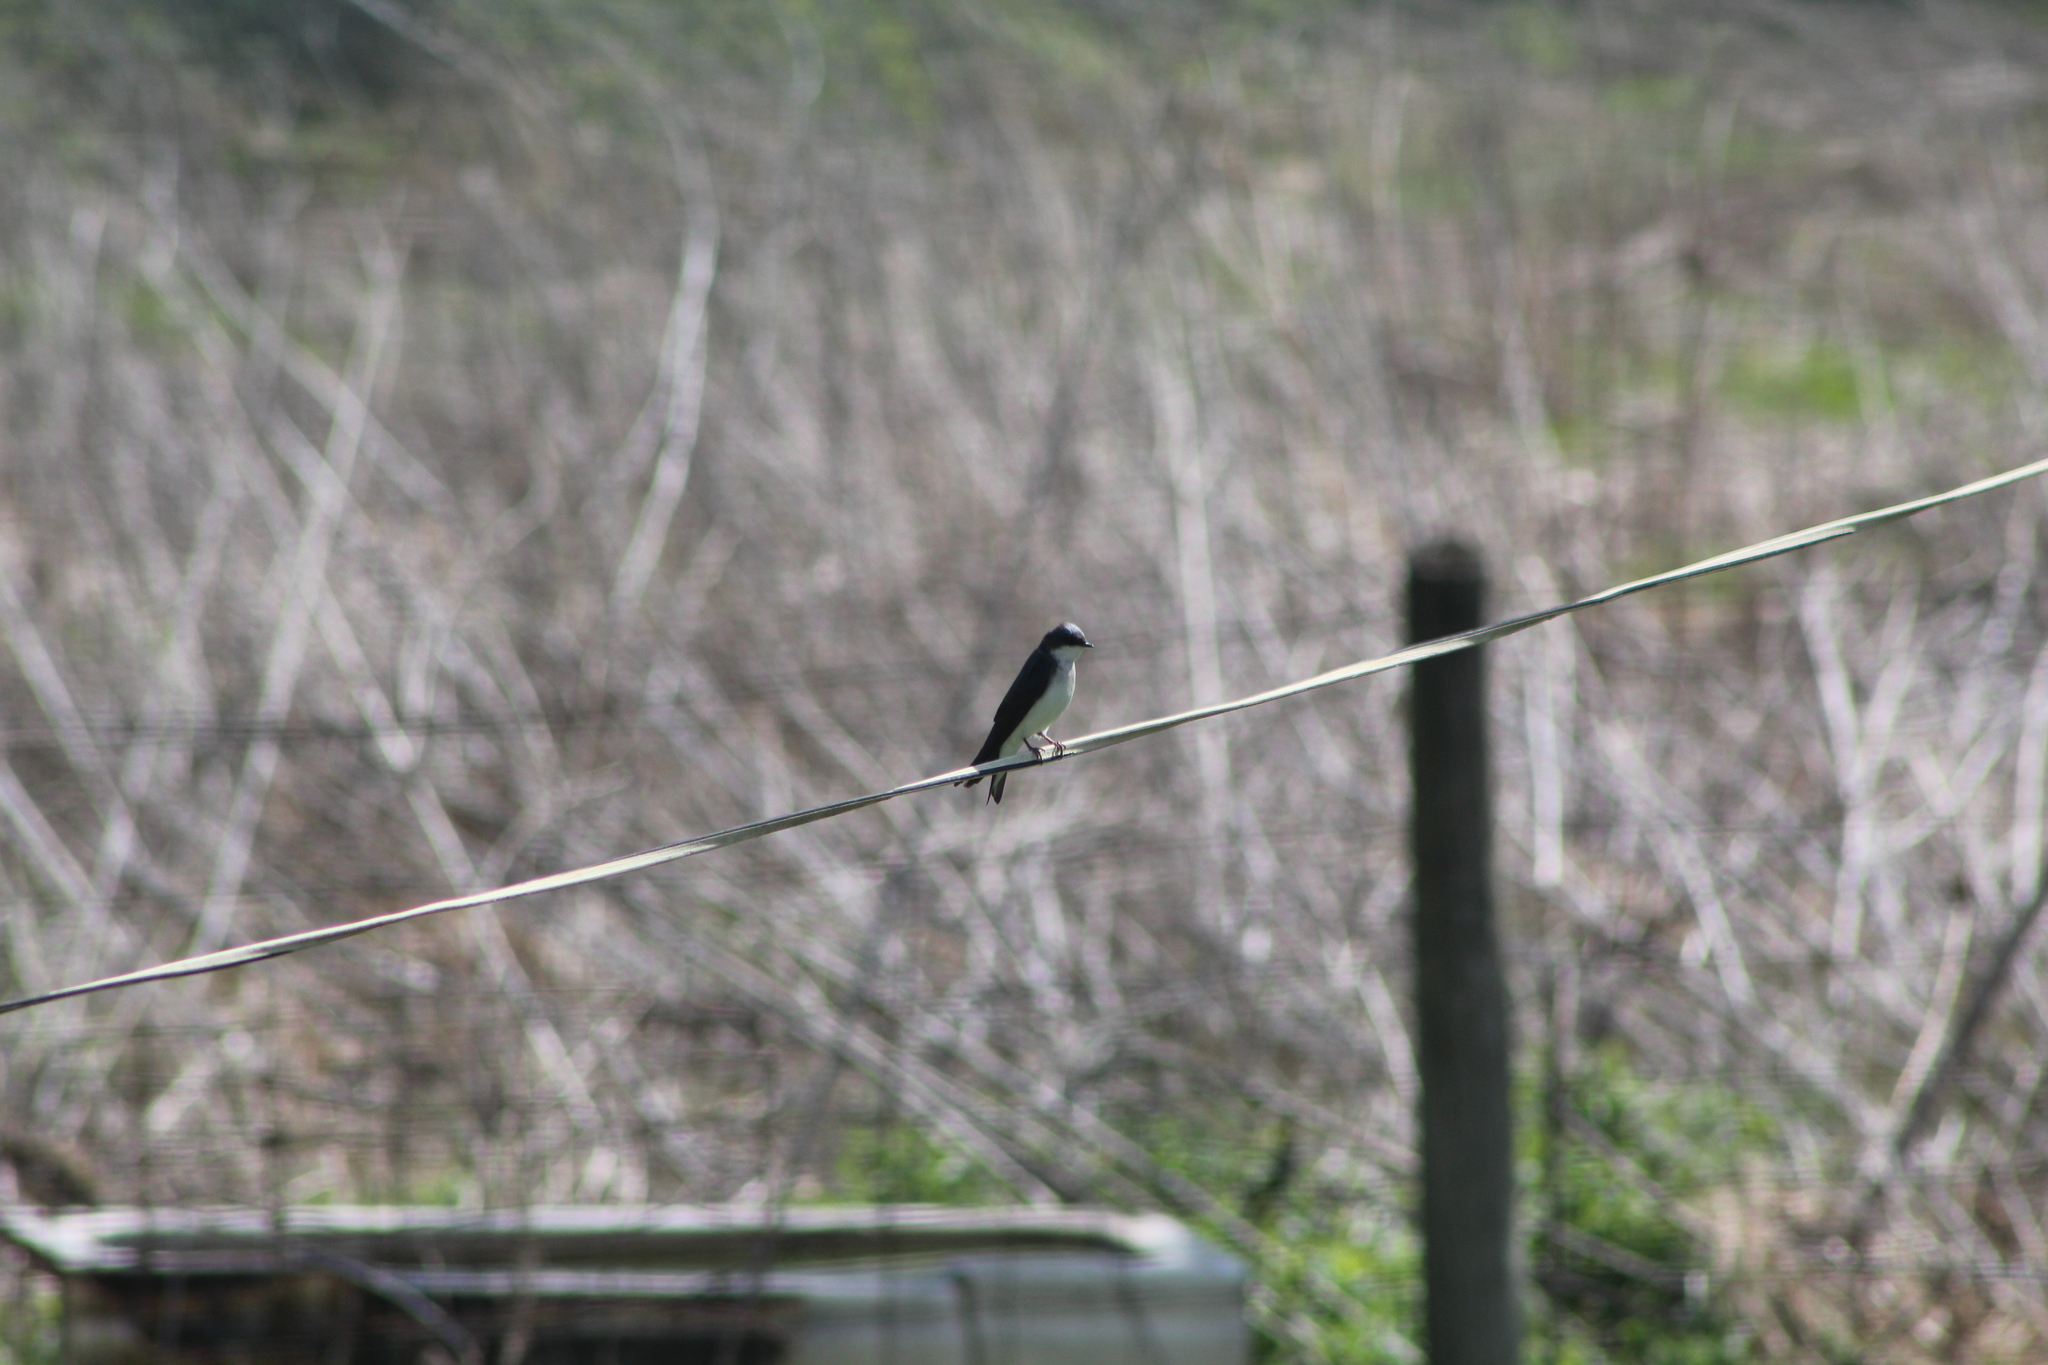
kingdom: Animalia
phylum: Chordata
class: Aves
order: Passeriformes
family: Hirundinidae
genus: Tachycineta
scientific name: Tachycineta bicolor
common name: Tree swallow
